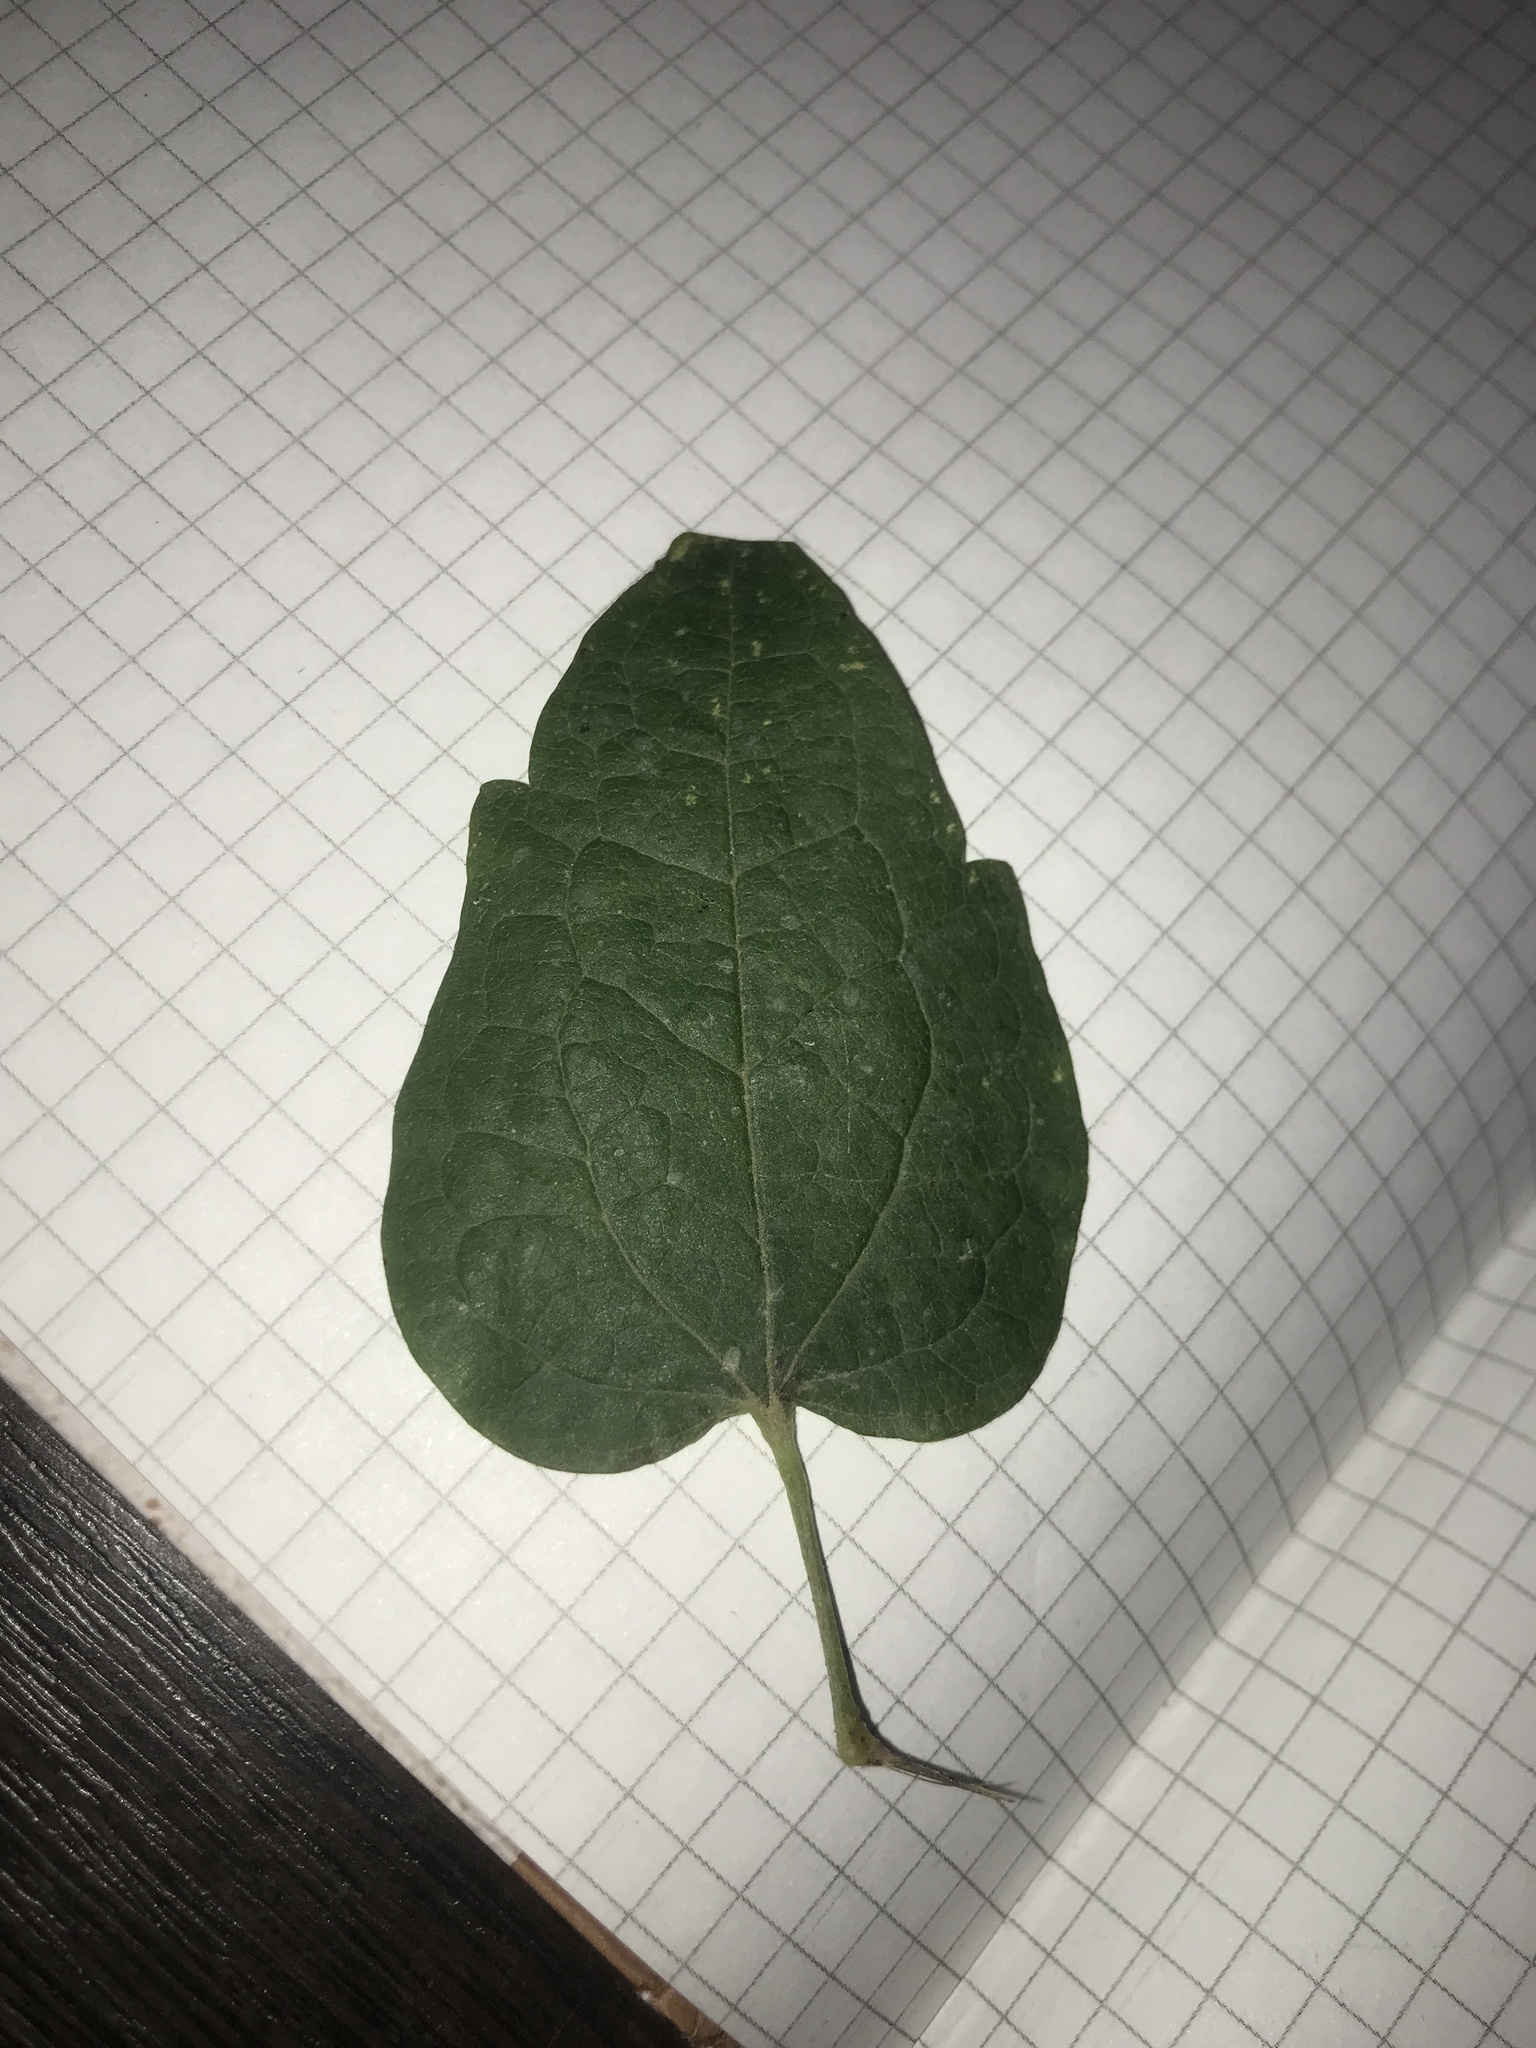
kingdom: Plantae
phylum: Tracheophyta
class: Magnoliopsida
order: Ranunculales
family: Ranunculaceae
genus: Clematis
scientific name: Clematis vitalba
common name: Evergreen clematis
